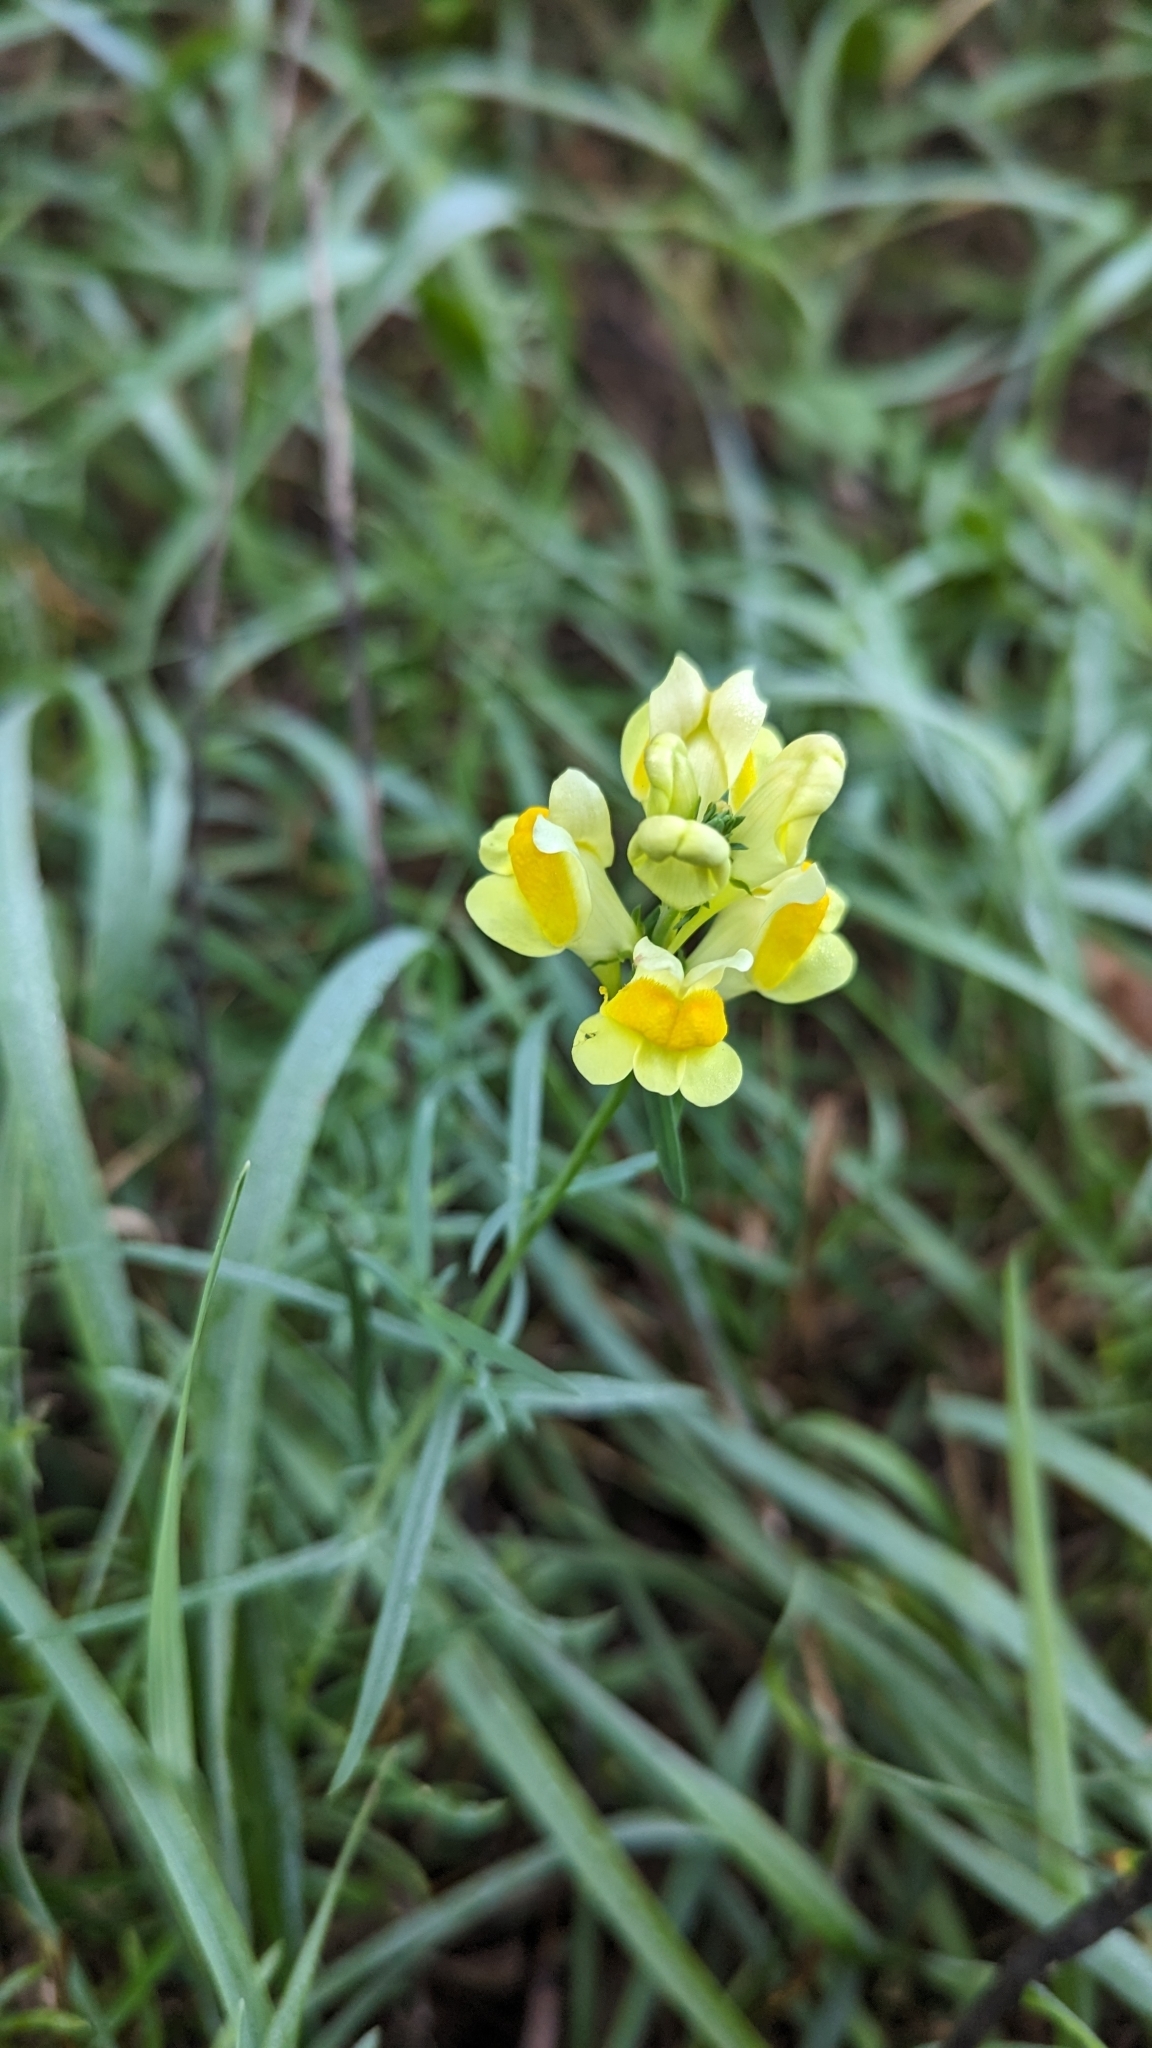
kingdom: Plantae
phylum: Tracheophyta
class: Magnoliopsida
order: Lamiales
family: Plantaginaceae
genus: Linaria
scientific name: Linaria vulgaris
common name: Butter and eggs
